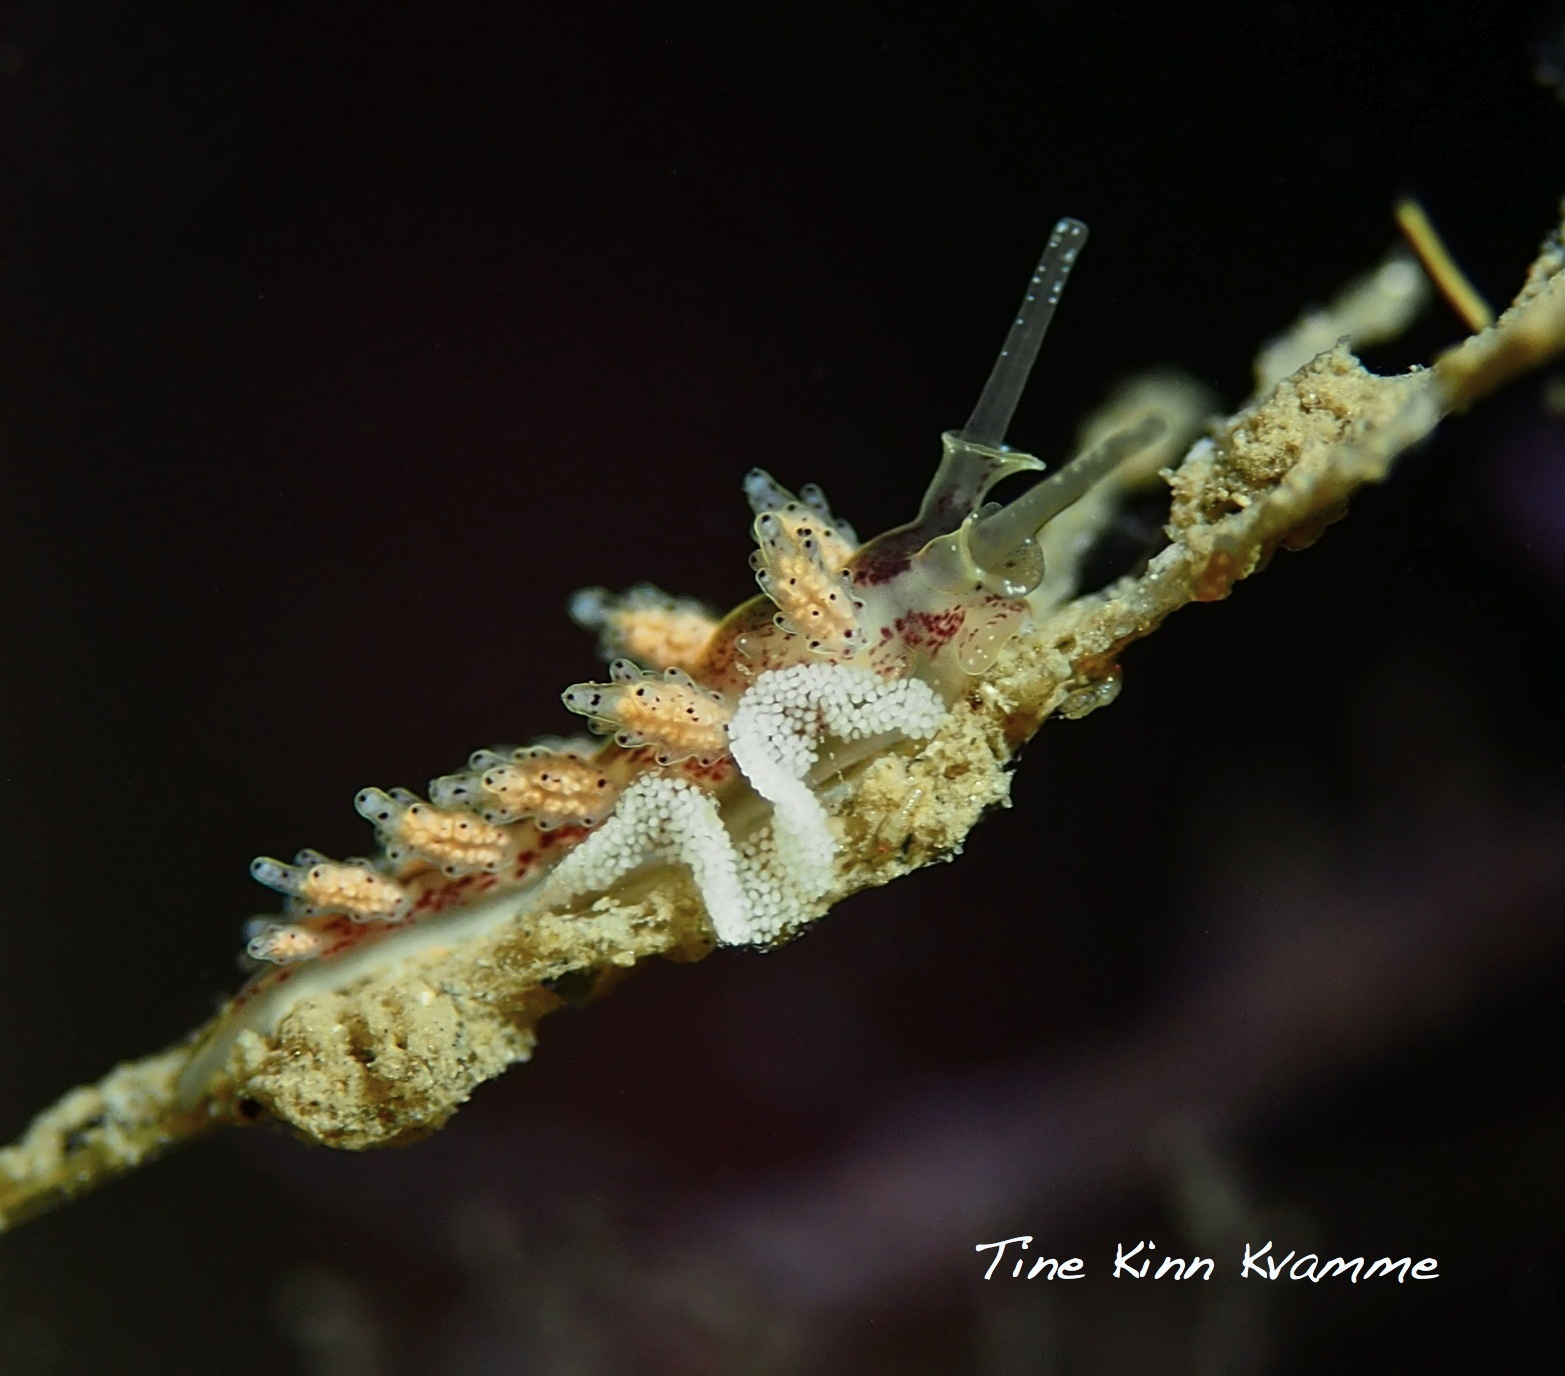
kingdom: Animalia
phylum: Mollusca
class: Gastropoda
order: Nudibranchia
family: Dotidae
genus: Doto
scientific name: Doto dunnei
